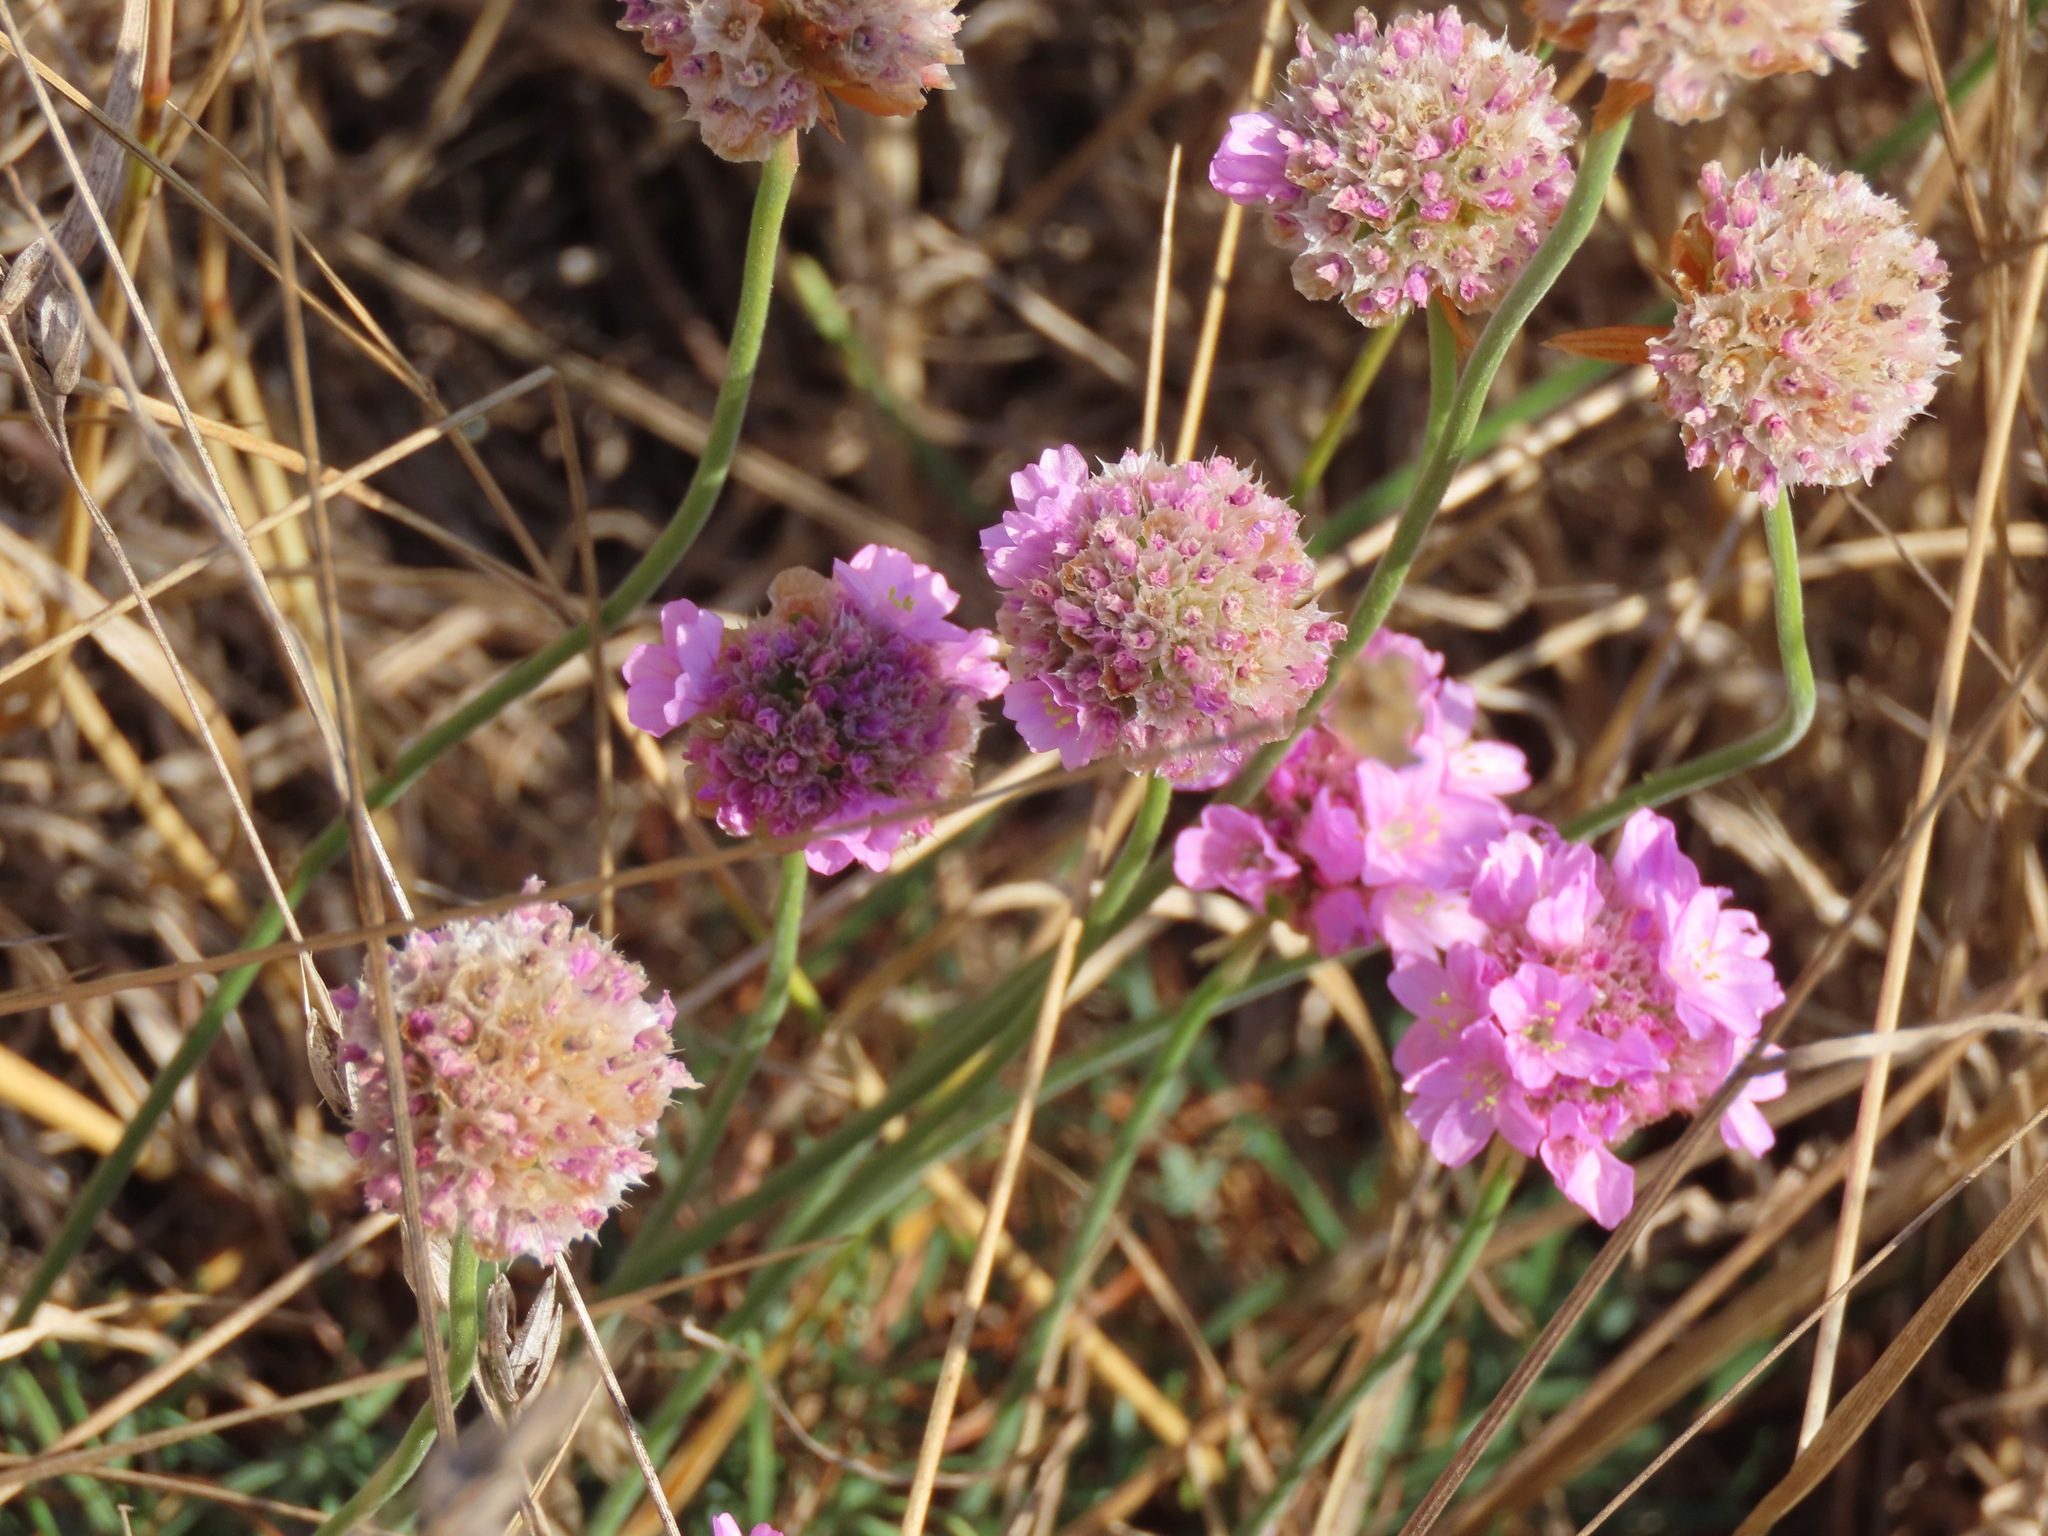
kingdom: Plantae
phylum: Tracheophyta
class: Magnoliopsida
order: Caryophyllales
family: Plumbaginaceae
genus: Armeria
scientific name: Armeria maritima
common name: Thrift
